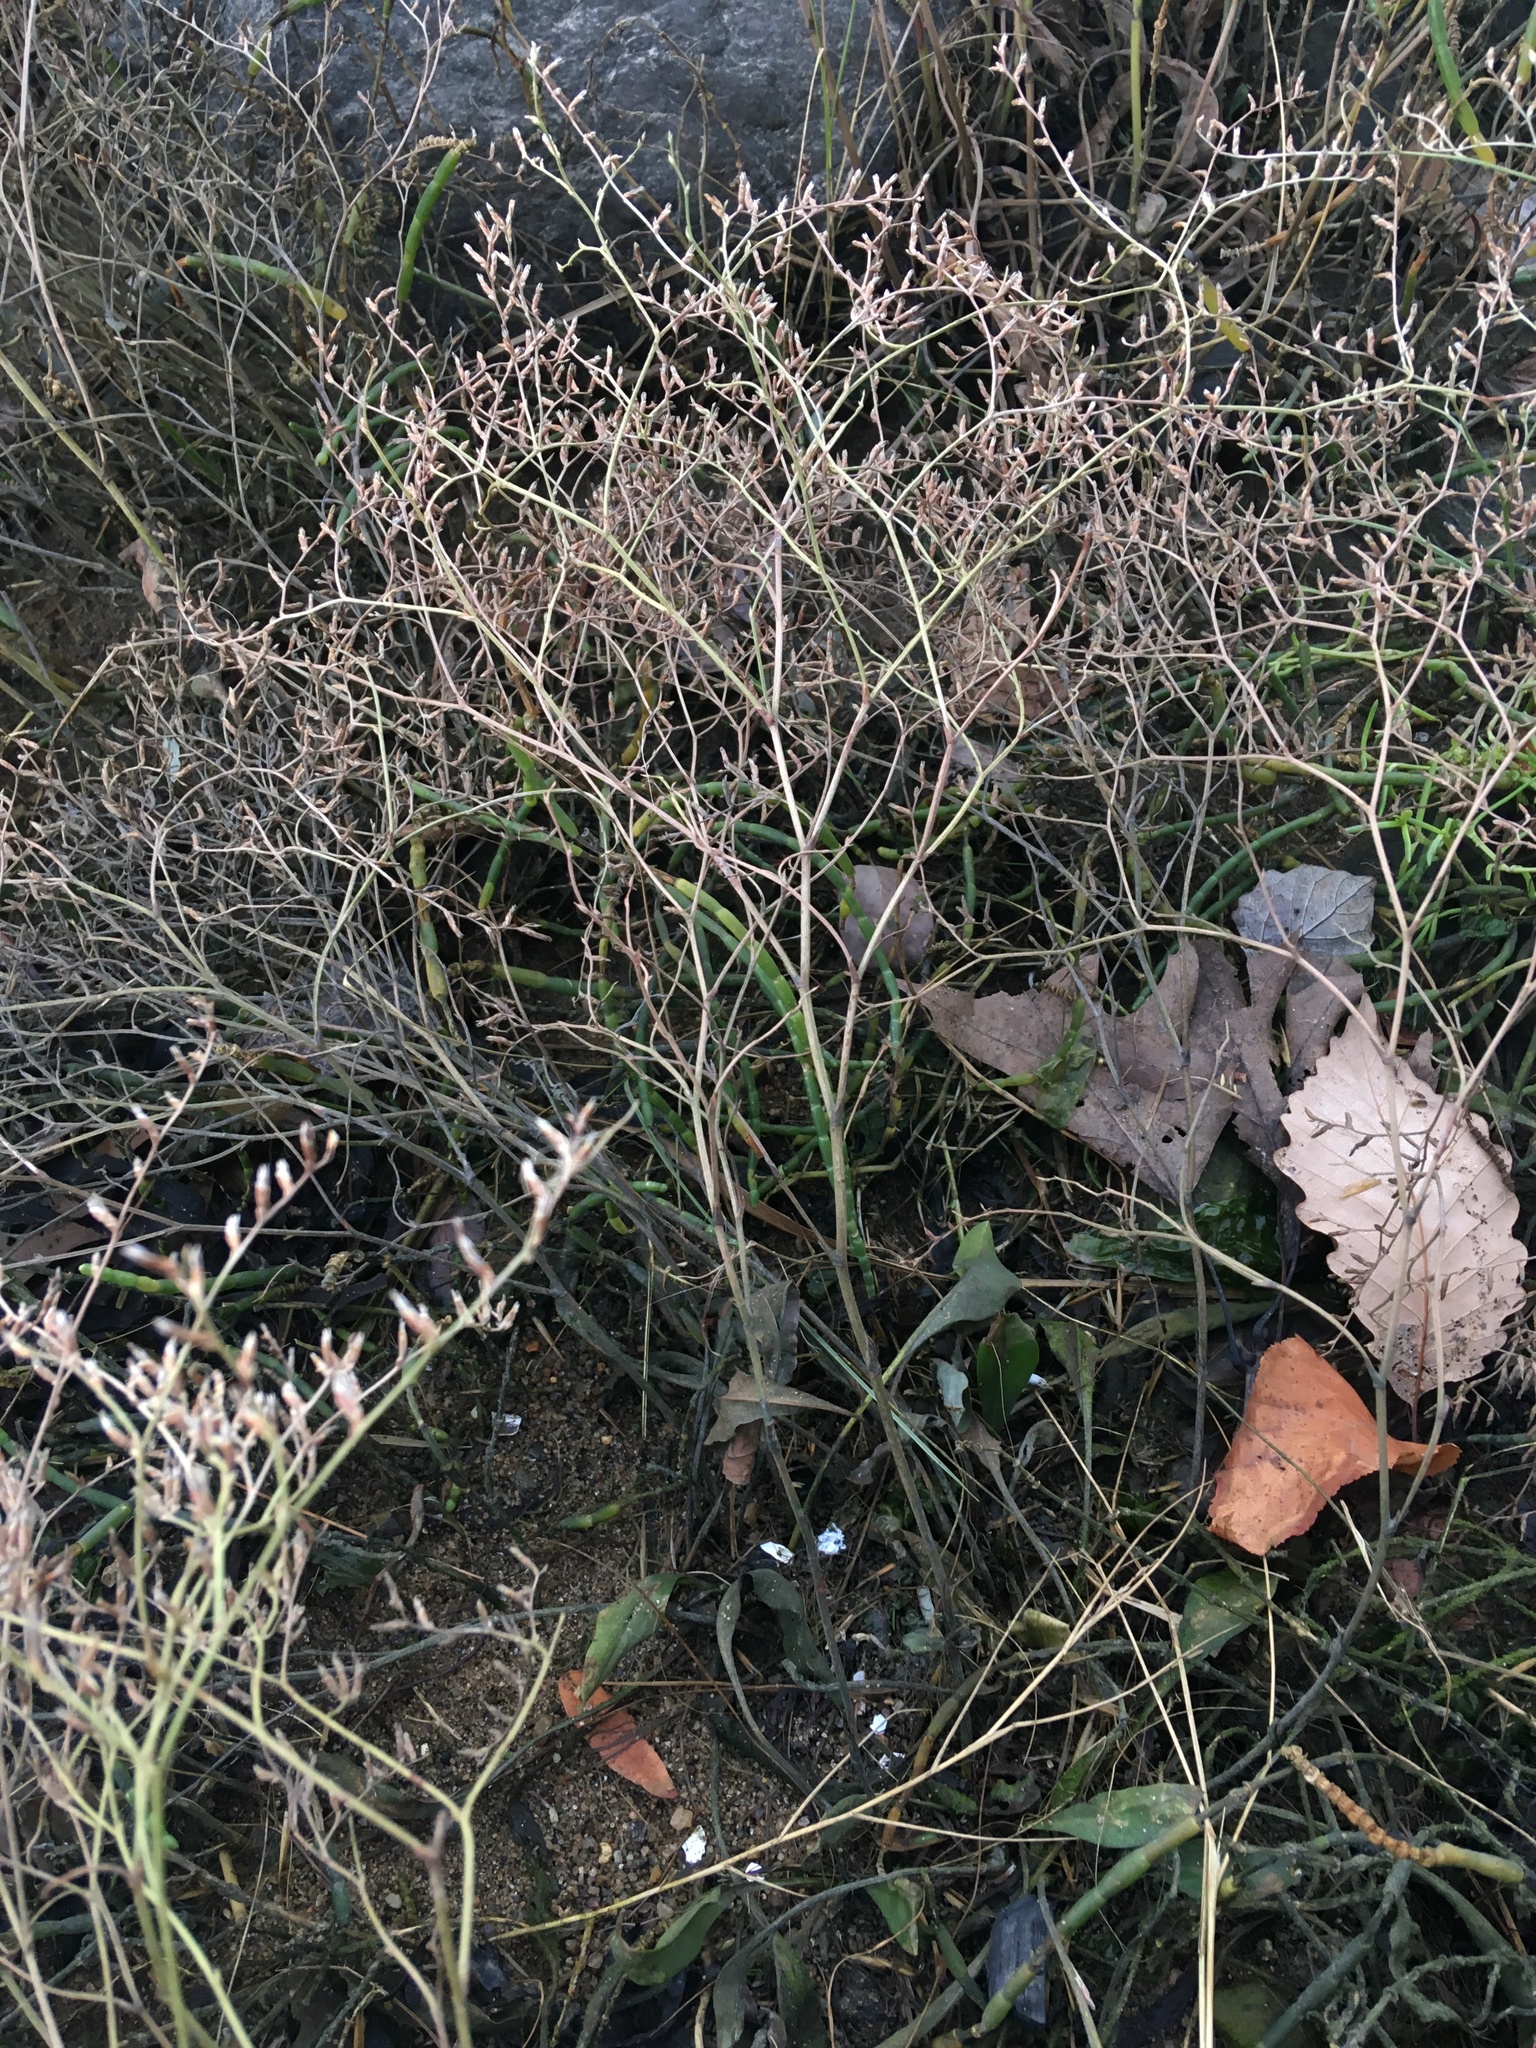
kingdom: Plantae
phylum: Tracheophyta
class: Magnoliopsida
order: Caryophyllales
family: Plumbaginaceae
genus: Limonium
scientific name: Limonium carolinianum
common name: Carolina sea lavender
